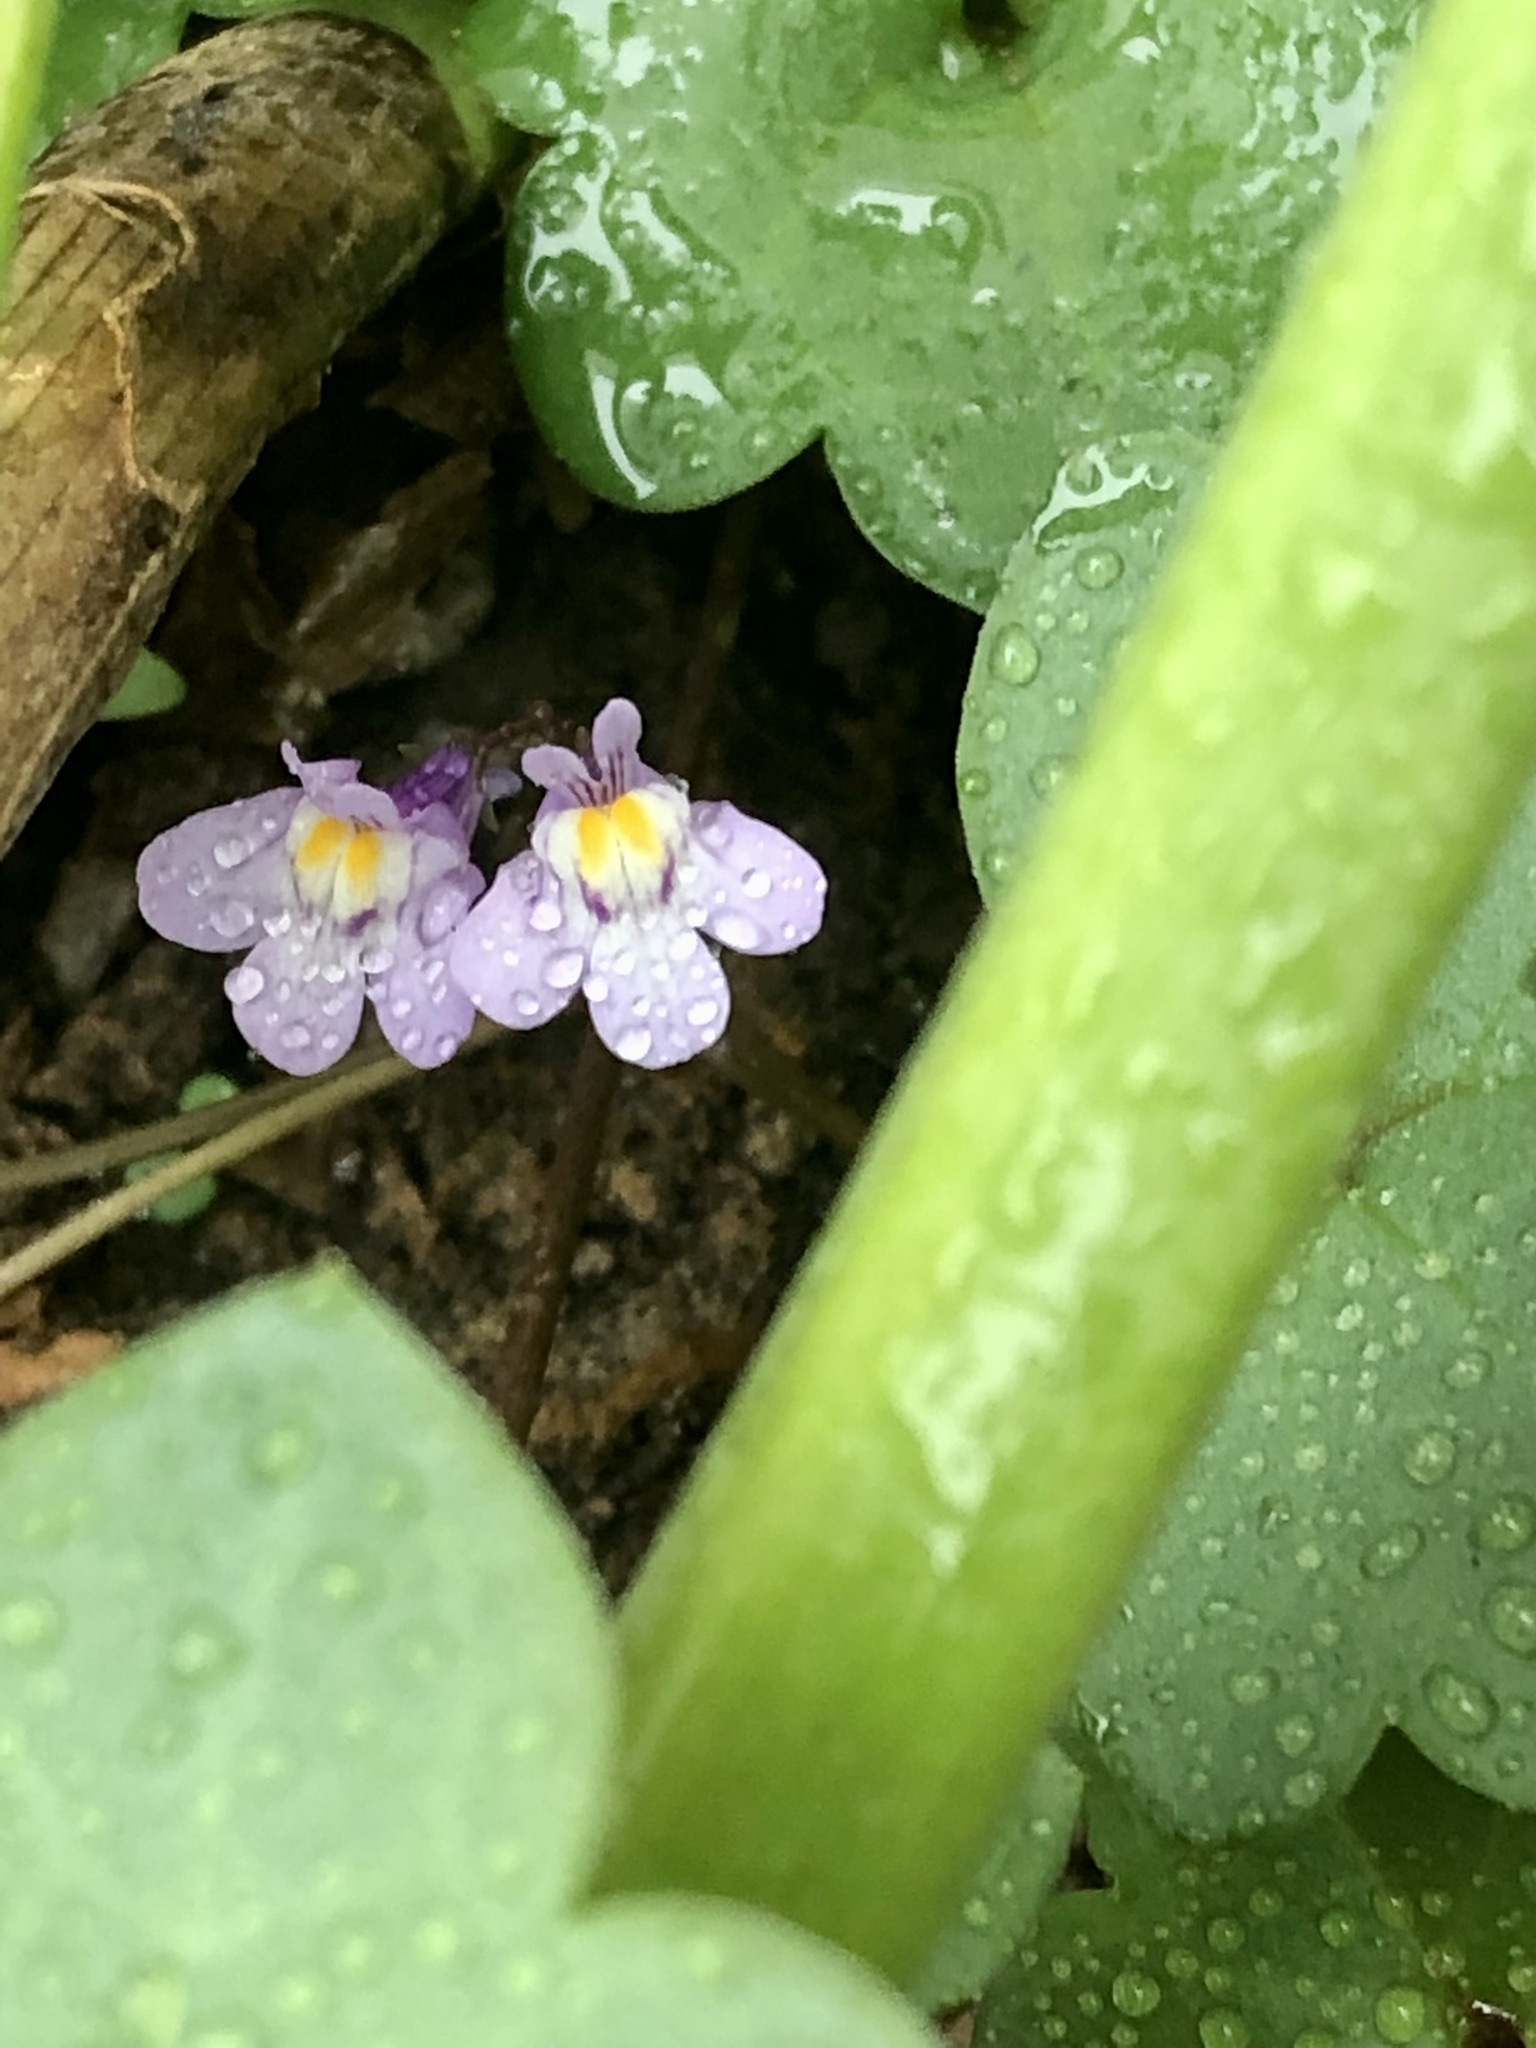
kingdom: Plantae
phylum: Tracheophyta
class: Magnoliopsida
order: Lamiales
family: Plantaginaceae
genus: Cymbalaria
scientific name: Cymbalaria muralis
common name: Ivy-leaved toadflax
